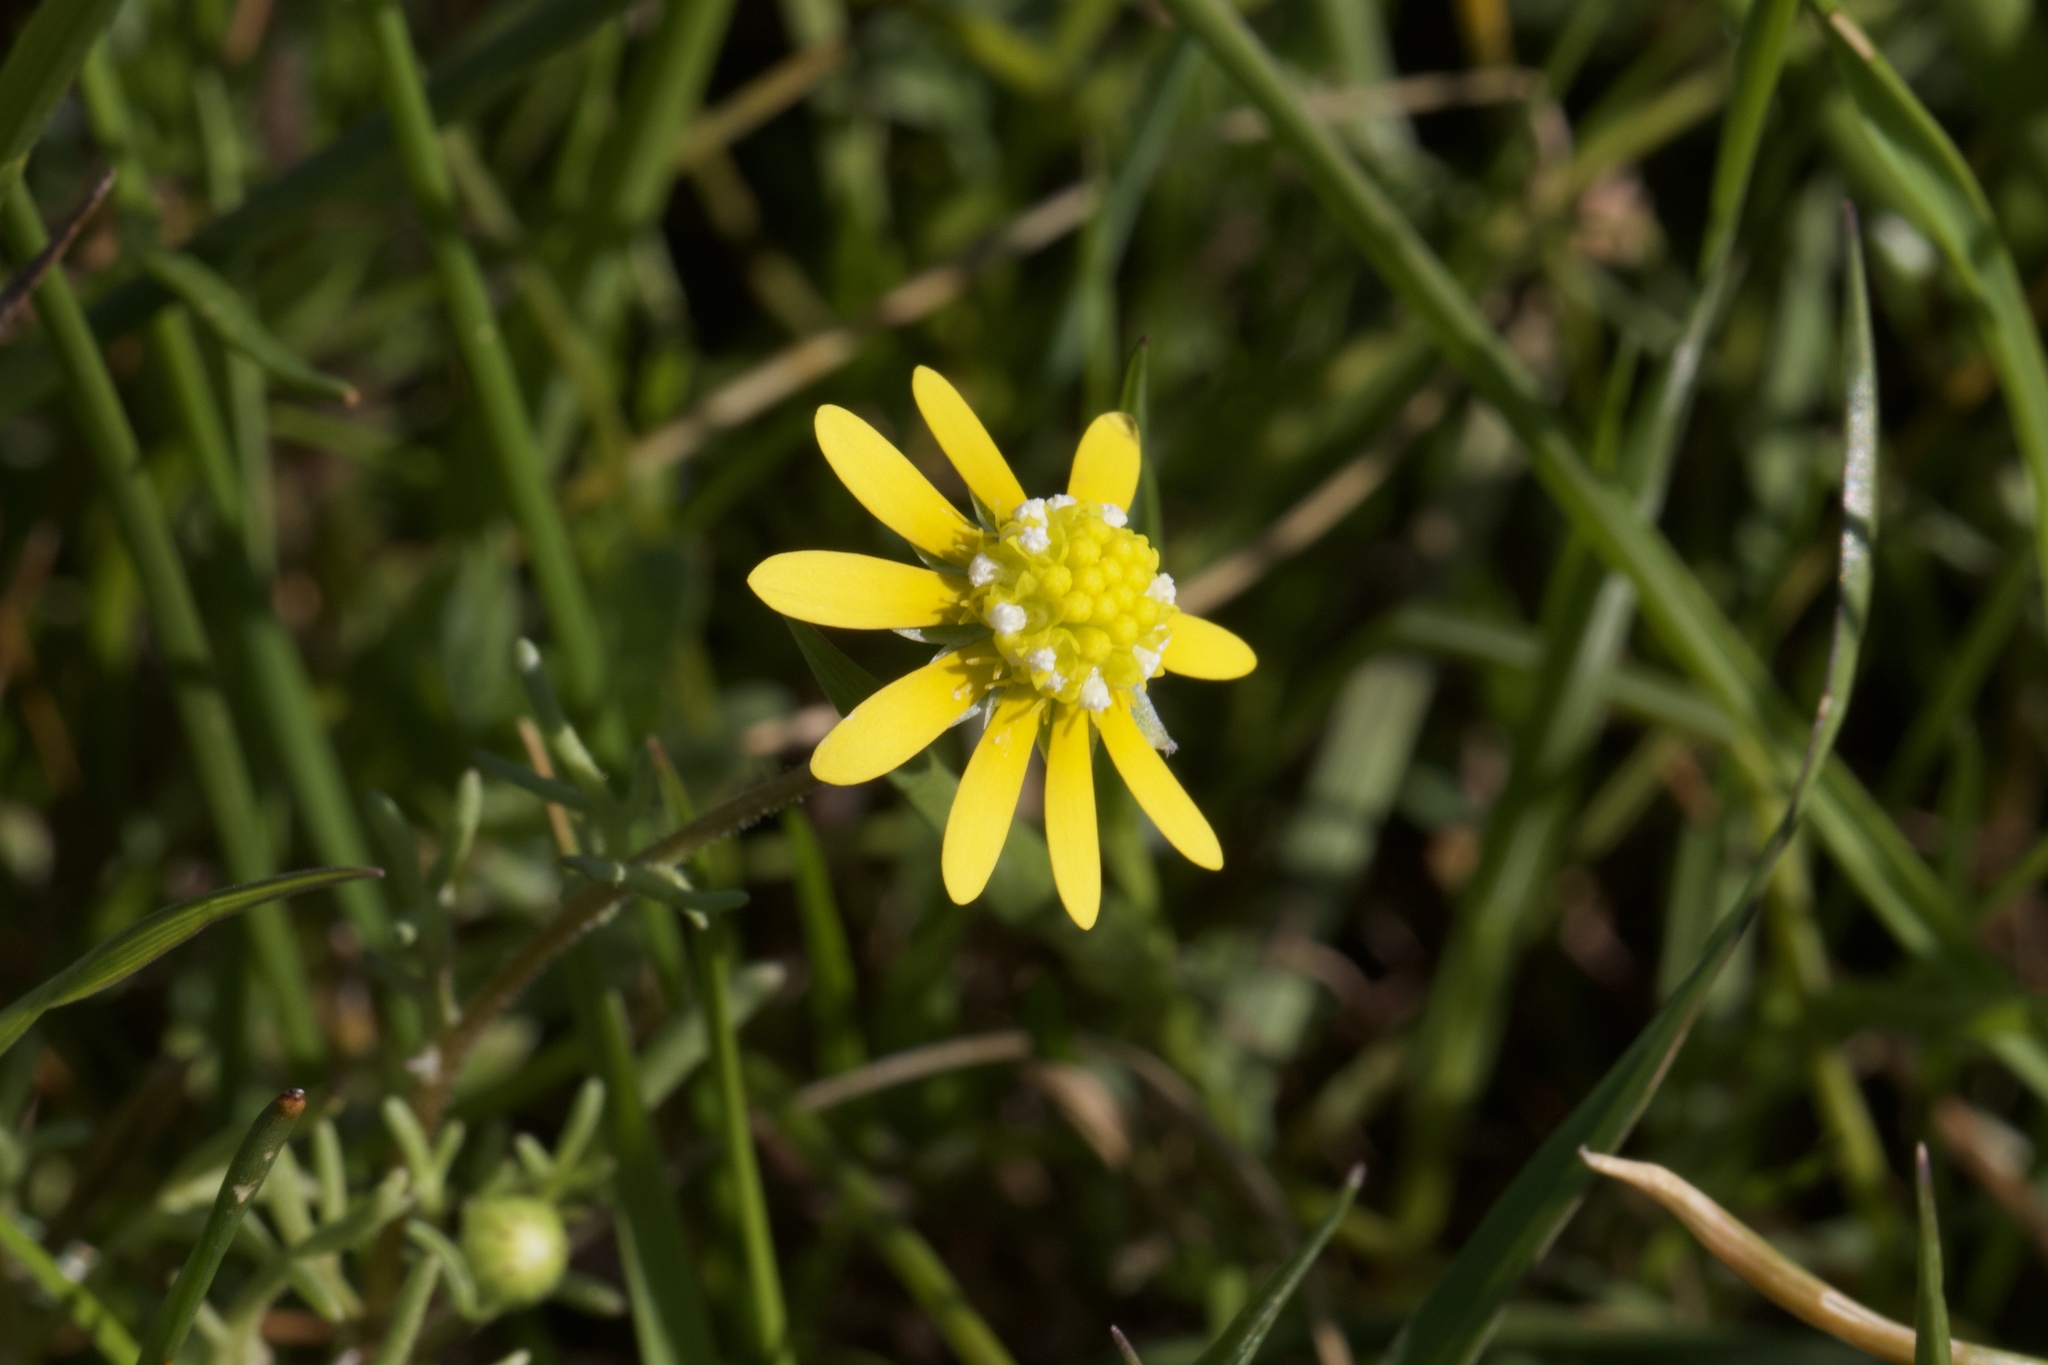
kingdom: Plantae
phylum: Tracheophyta
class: Magnoliopsida
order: Asterales
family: Asteraceae
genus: Blennosperma
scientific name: Blennosperma nanum
